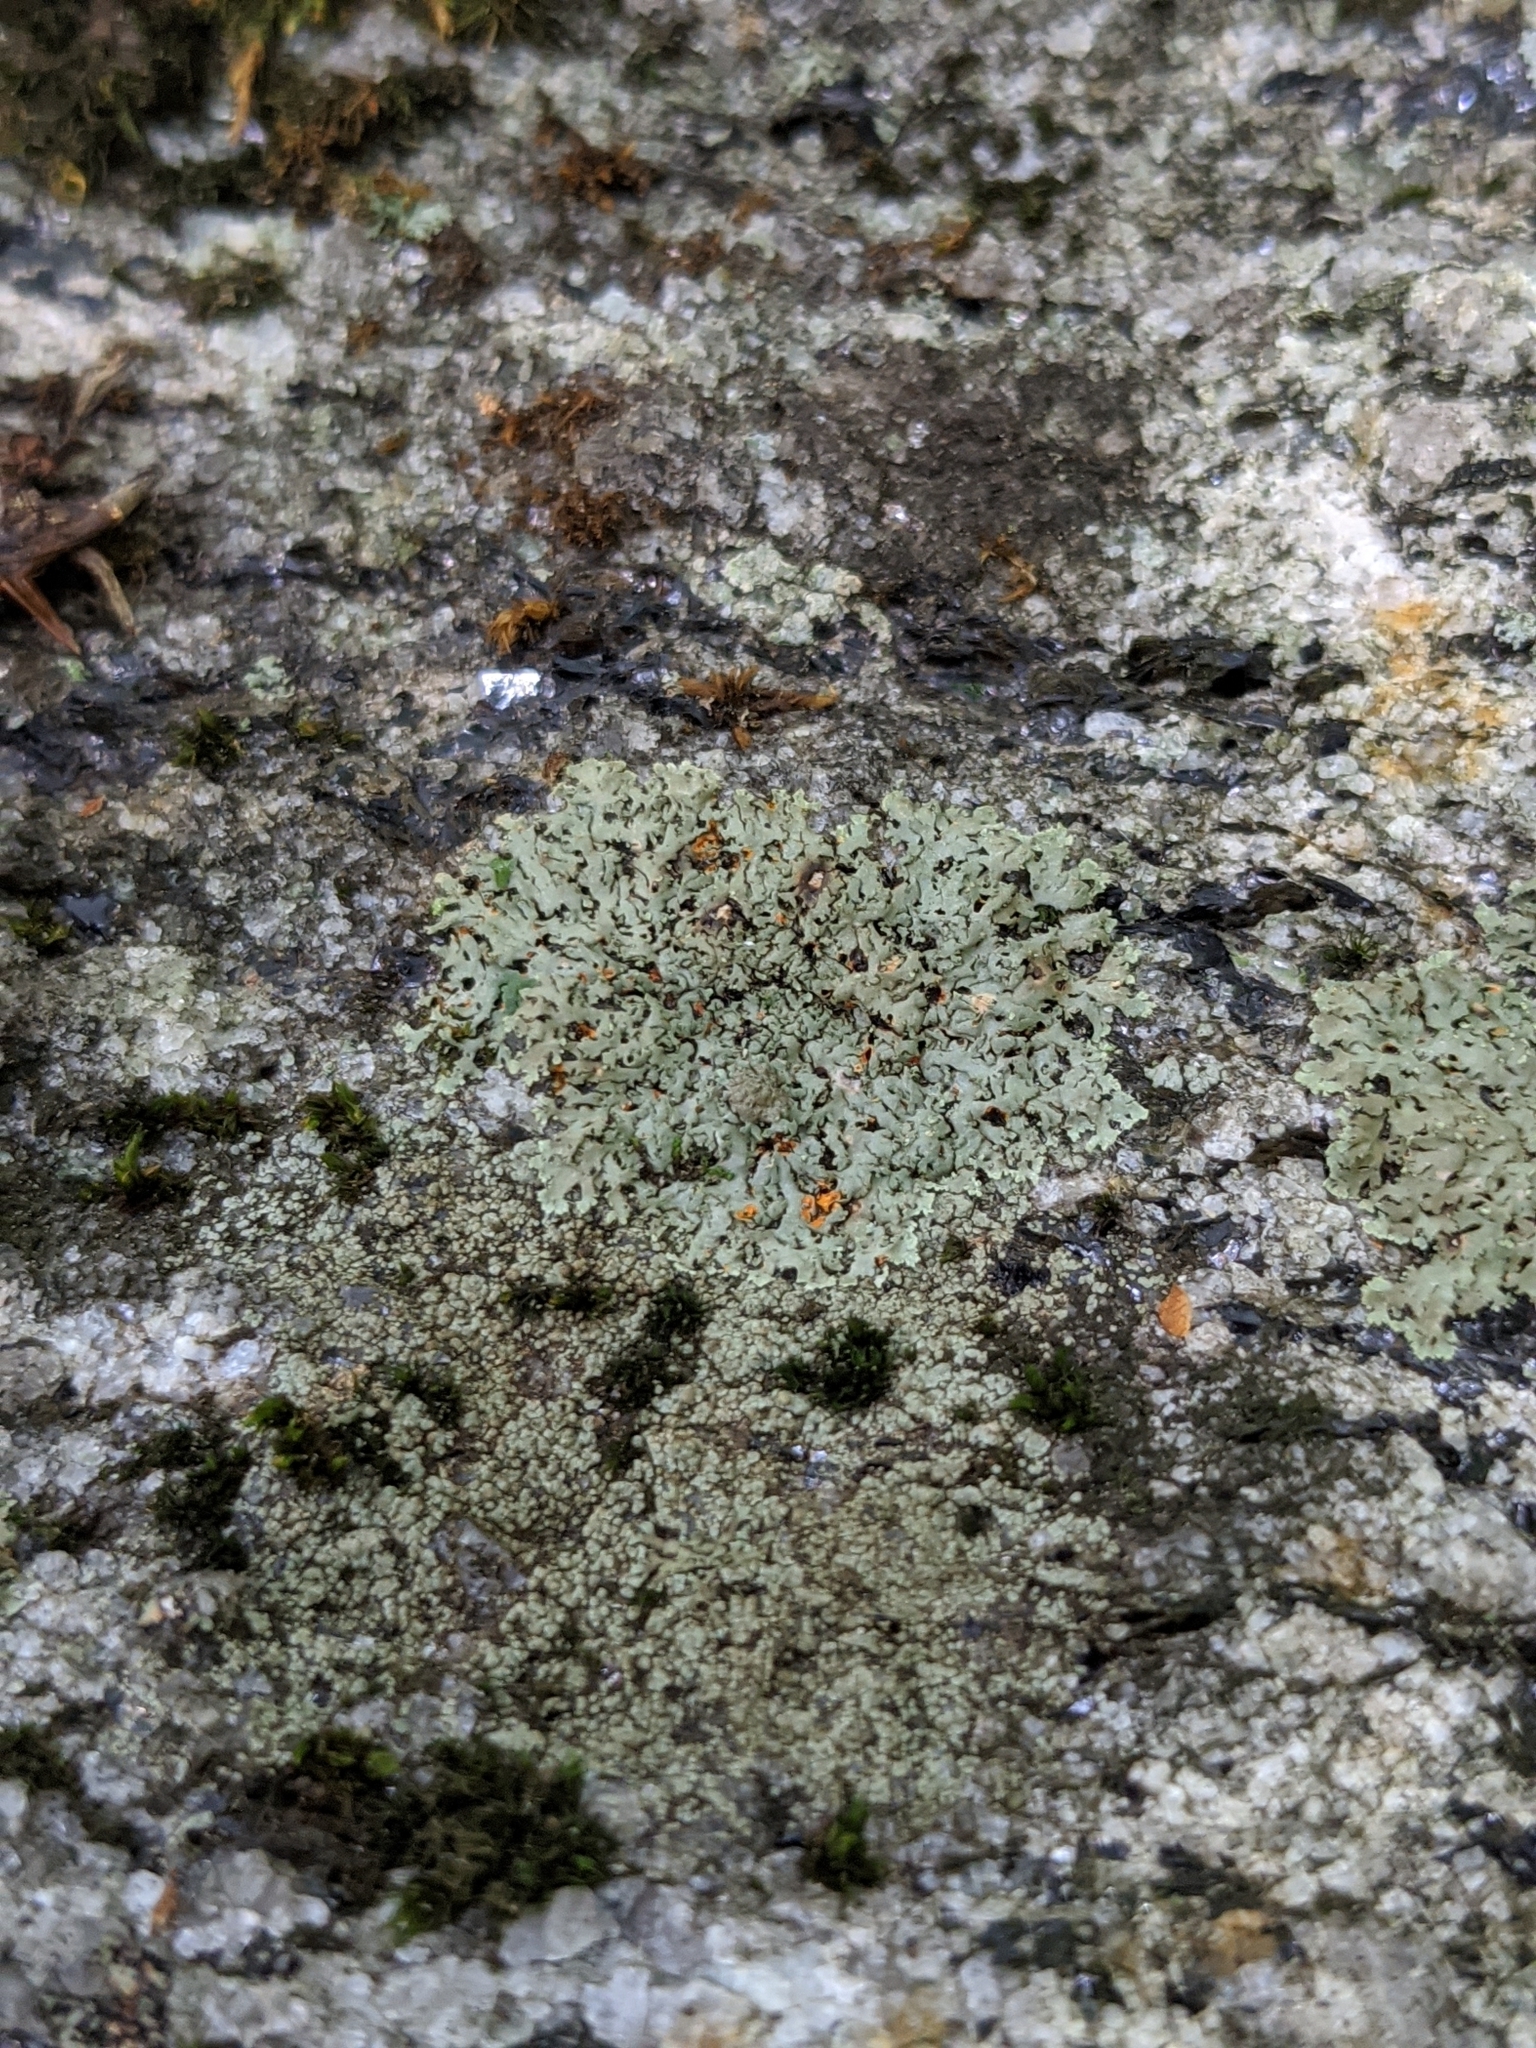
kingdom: Fungi
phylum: Ascomycota
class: Lecanoromycetes
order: Caliciales
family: Physciaceae
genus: Phaeophyscia
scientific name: Phaeophyscia rubropulchra
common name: Orange-cored shadow lichen
